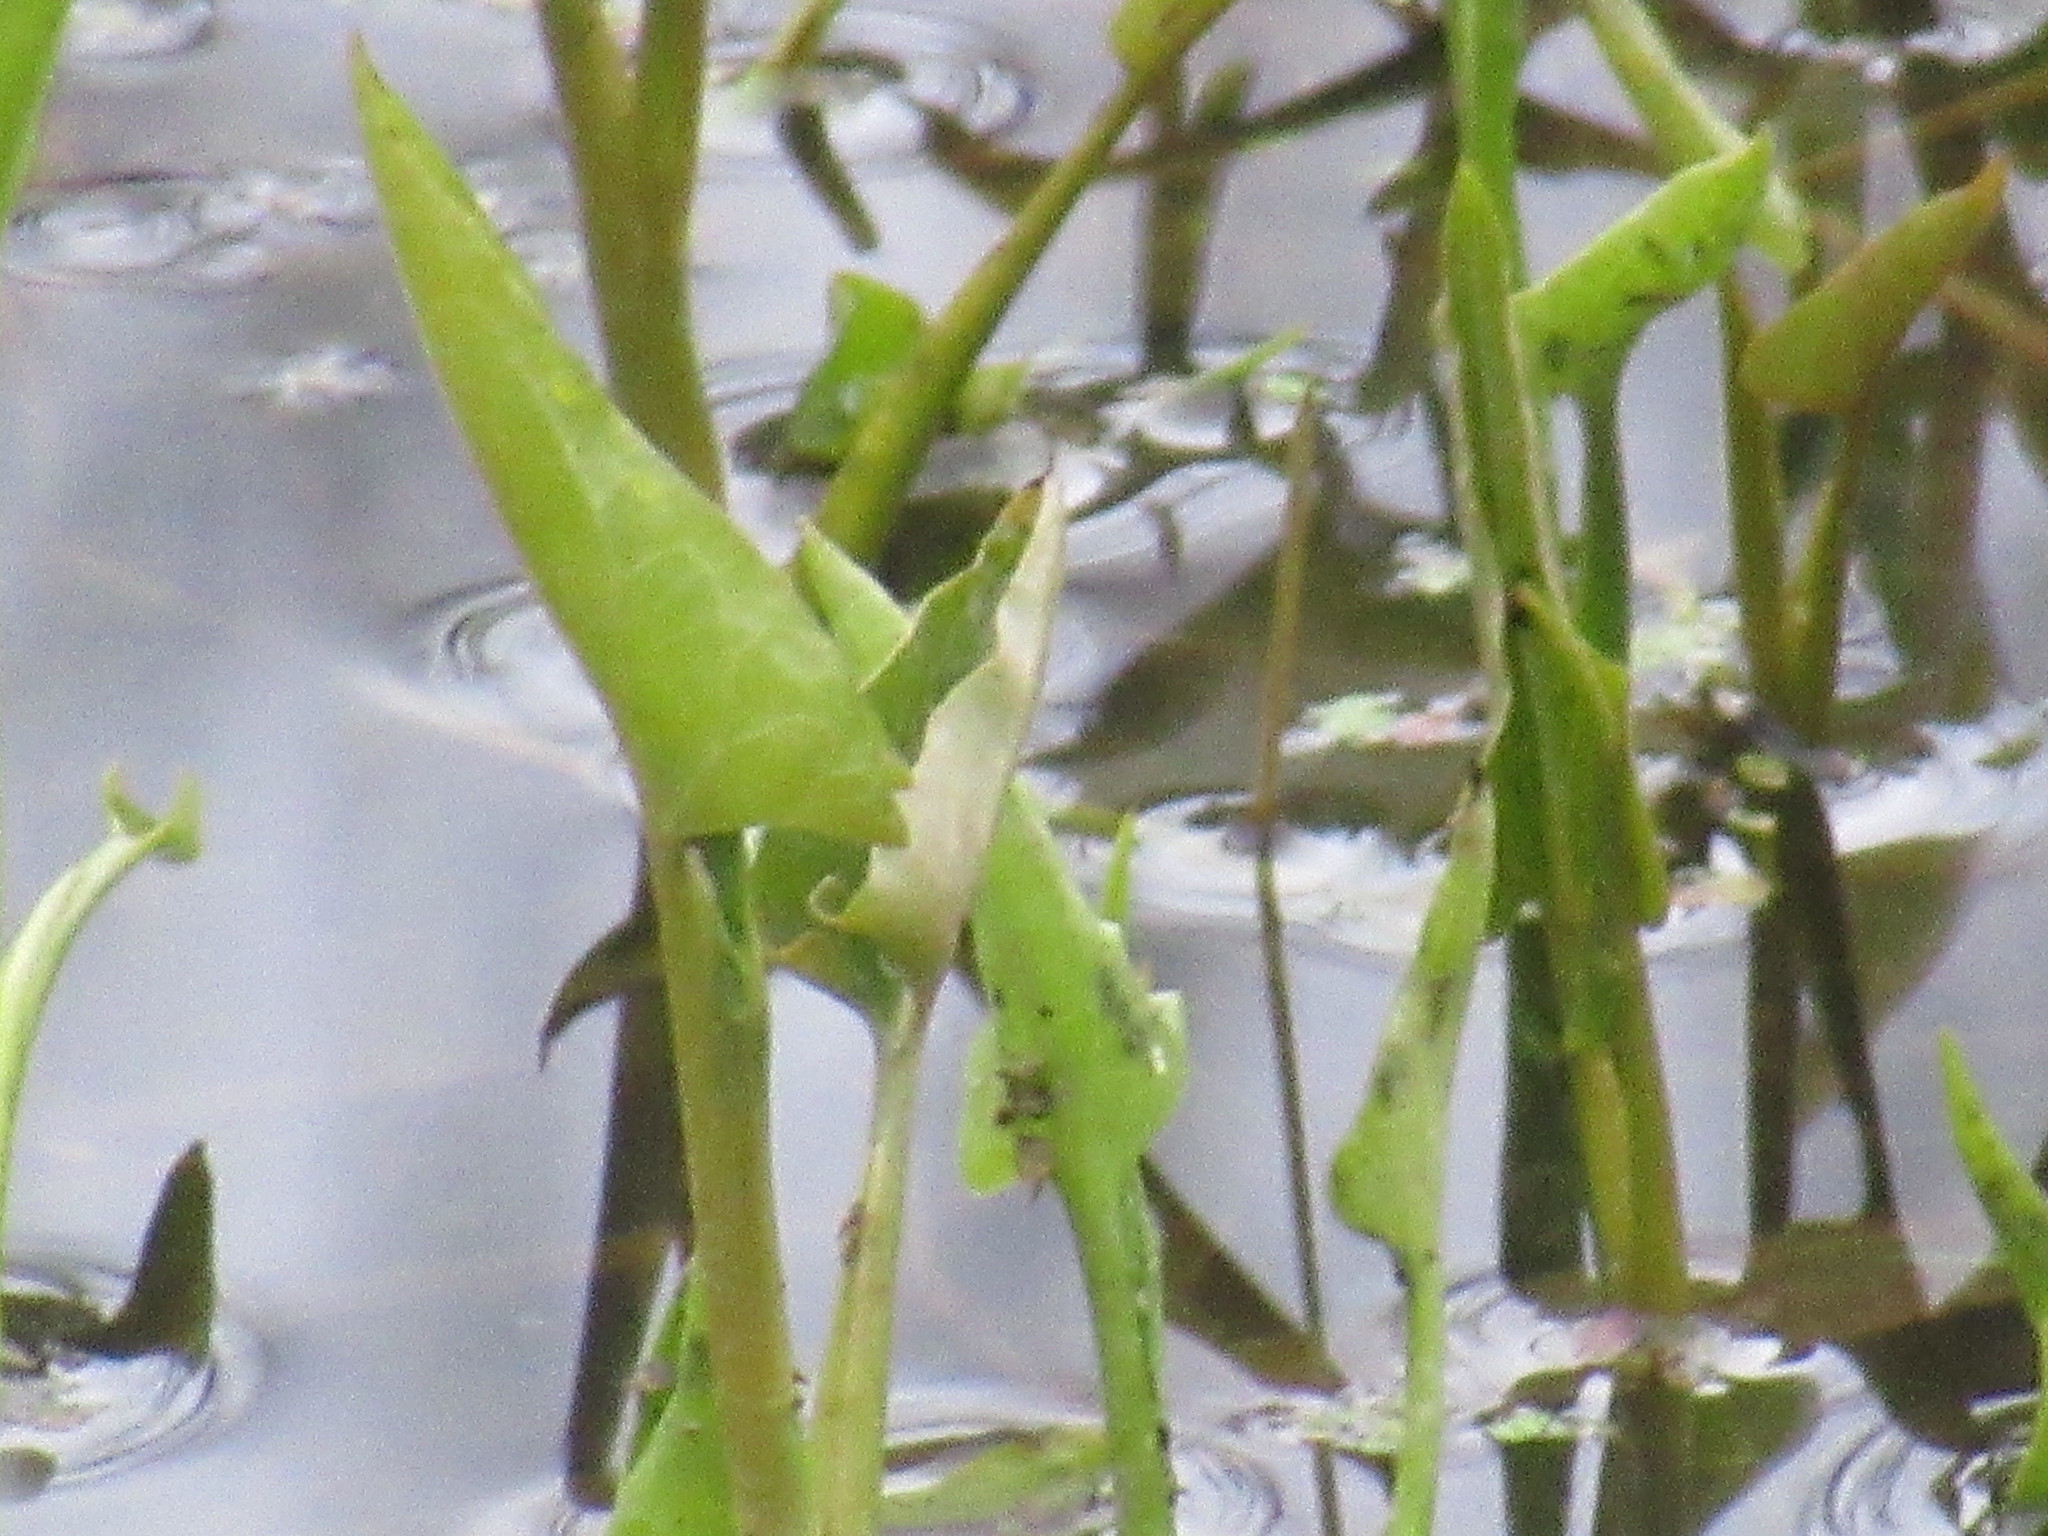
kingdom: Plantae
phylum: Tracheophyta
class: Liliopsida
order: Commelinales
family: Pontederiaceae
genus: Pontederia
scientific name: Pontederia cordata
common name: Pickerelweed
